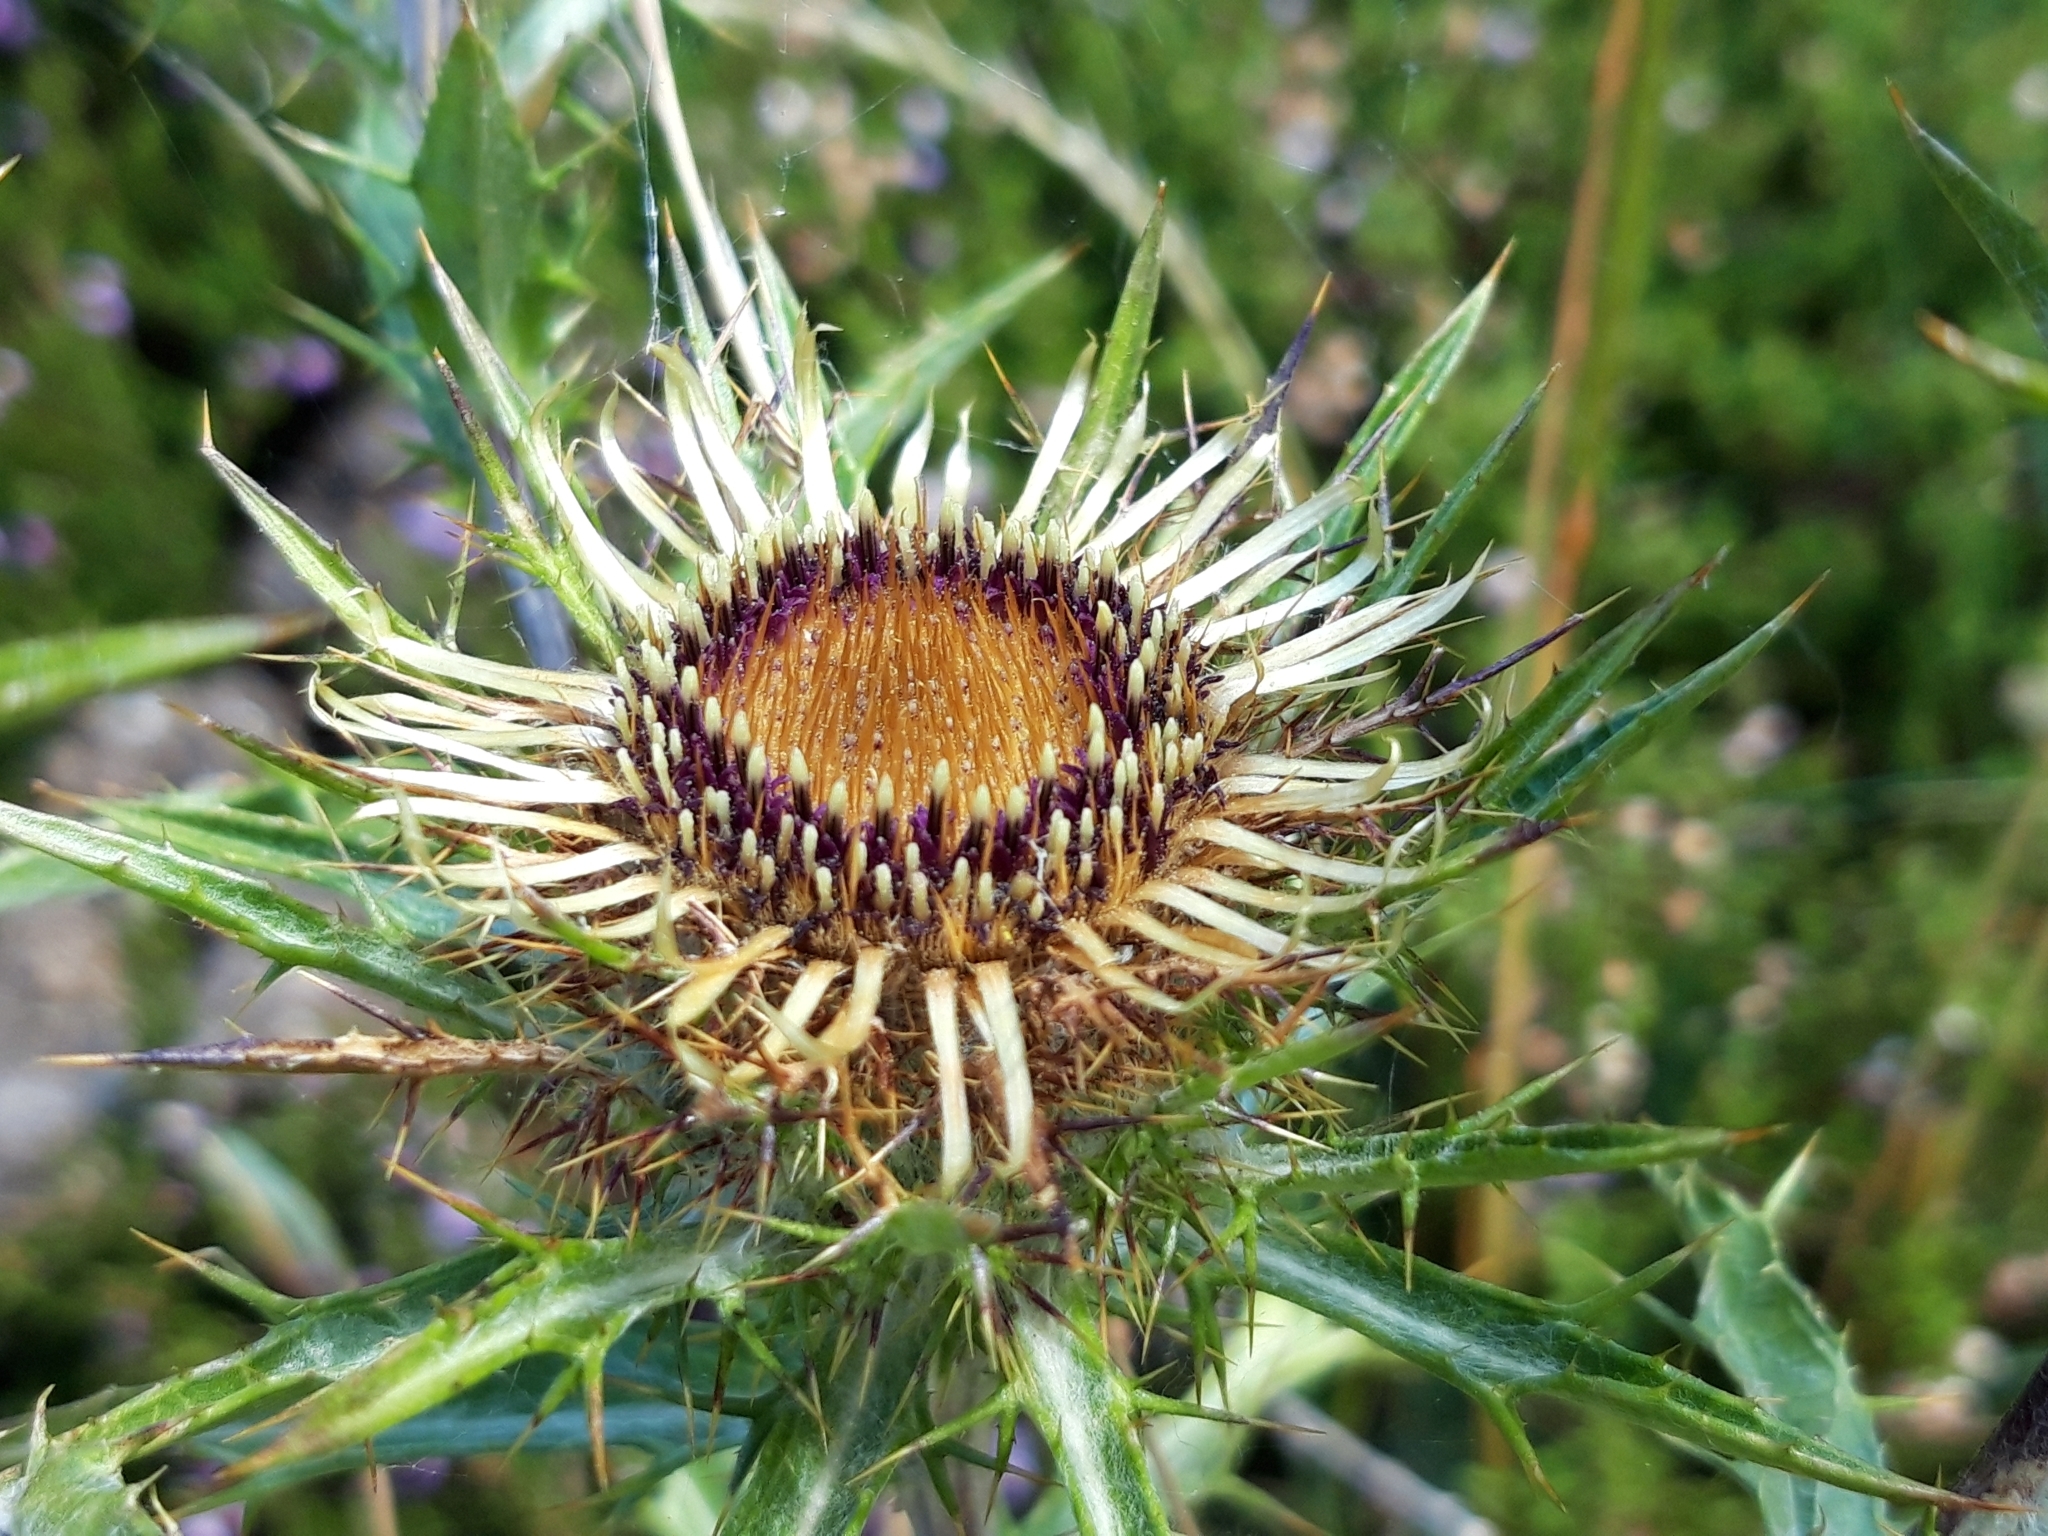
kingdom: Plantae
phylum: Tracheophyta
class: Magnoliopsida
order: Asterales
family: Asteraceae
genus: Carlina
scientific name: Carlina vulgaris
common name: Carline thistle
